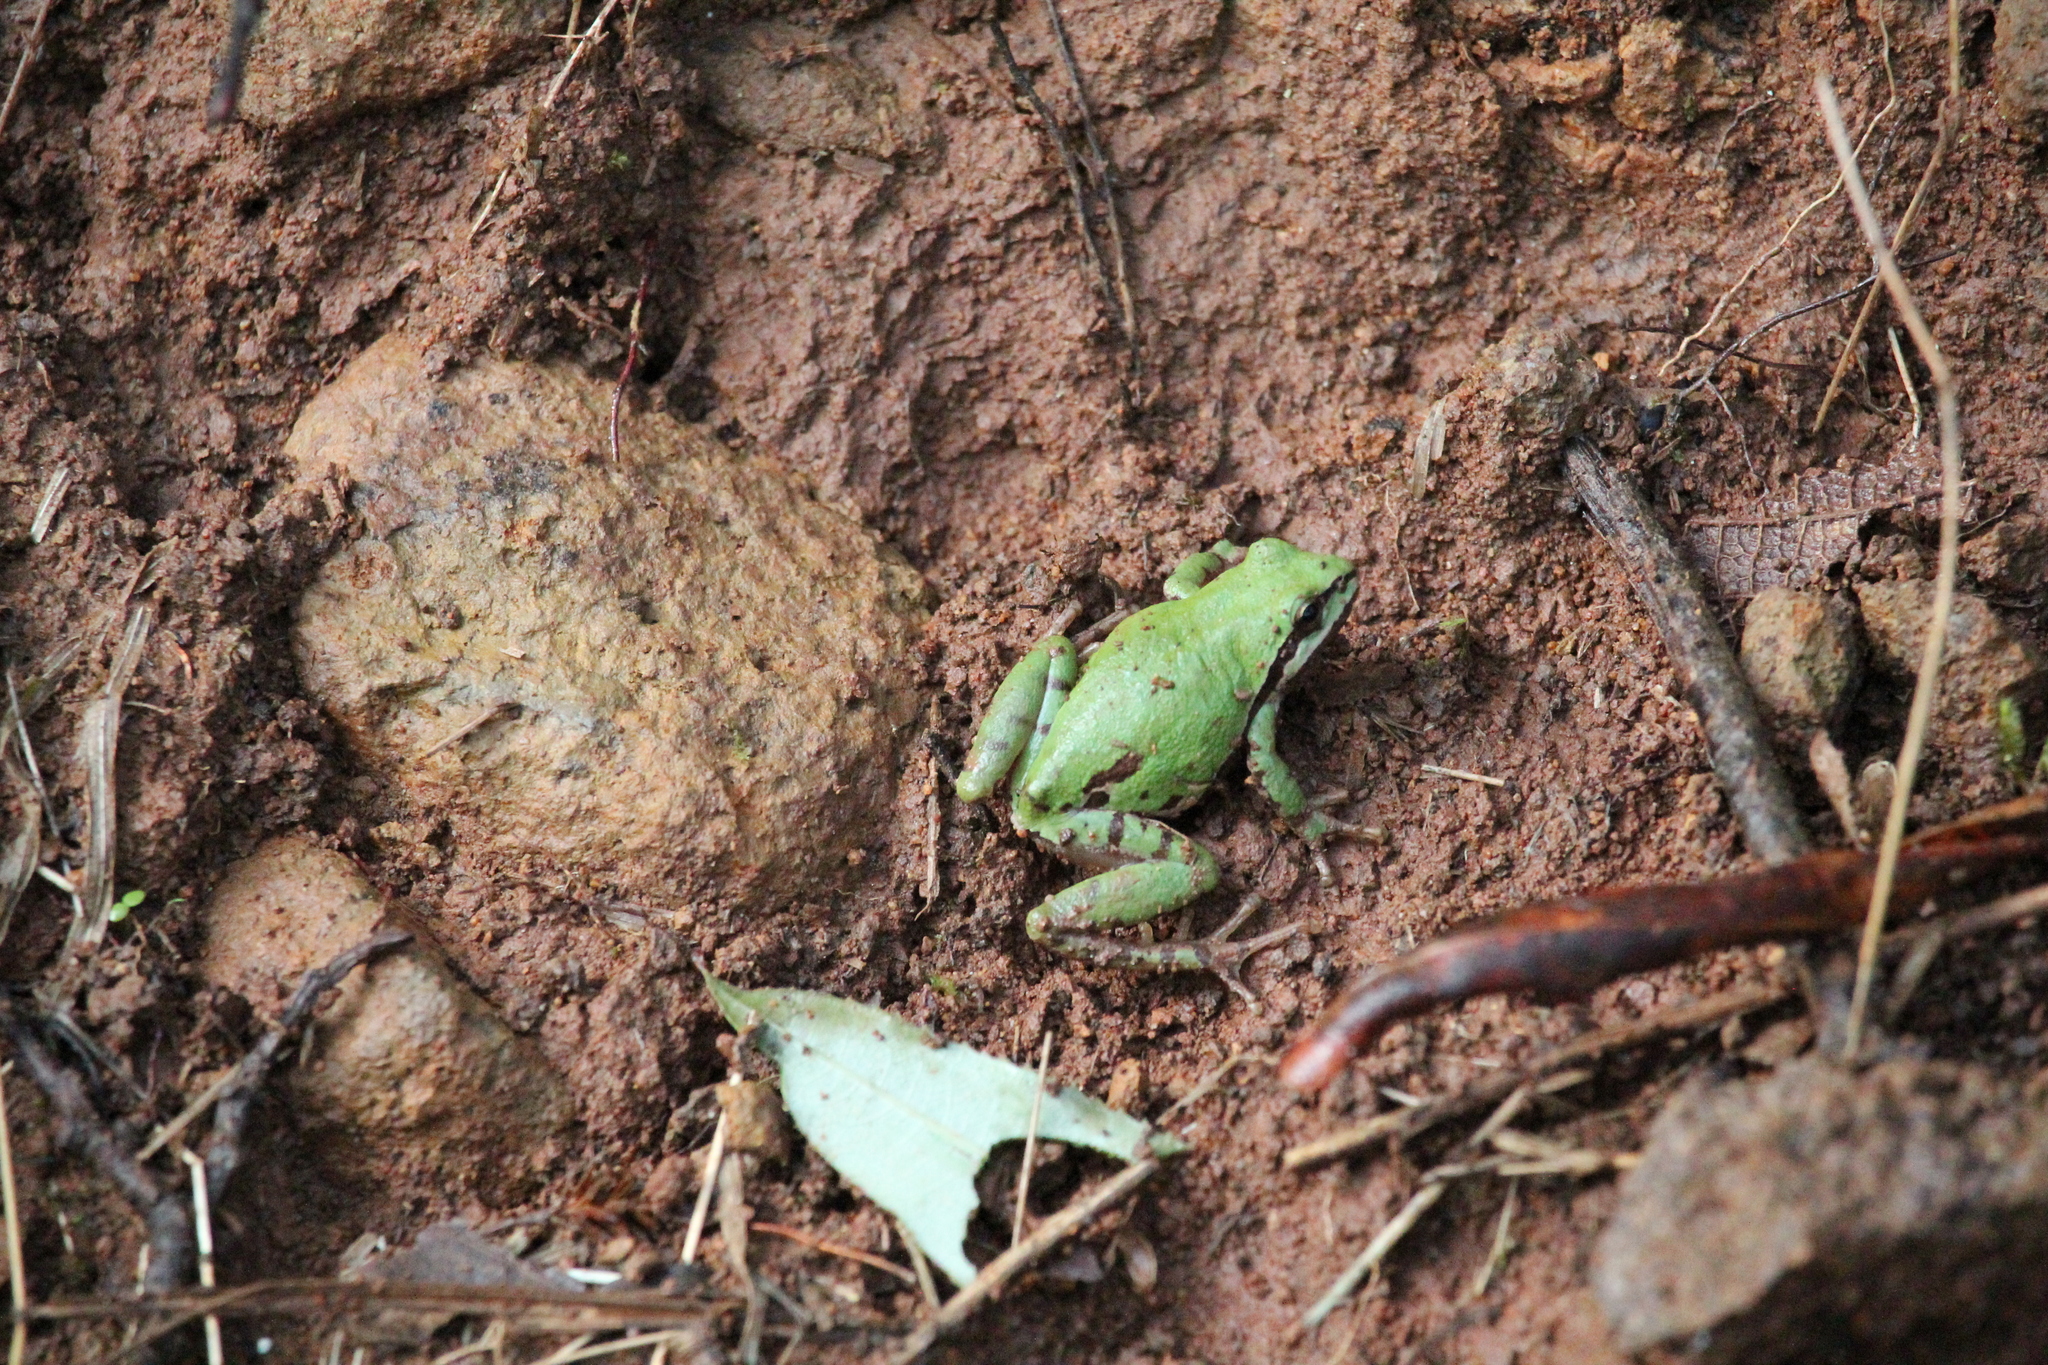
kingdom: Animalia
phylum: Chordata
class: Amphibia
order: Anura
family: Hylidae
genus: Dryophytes
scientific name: Dryophytes eximius
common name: Mountain treefrog
